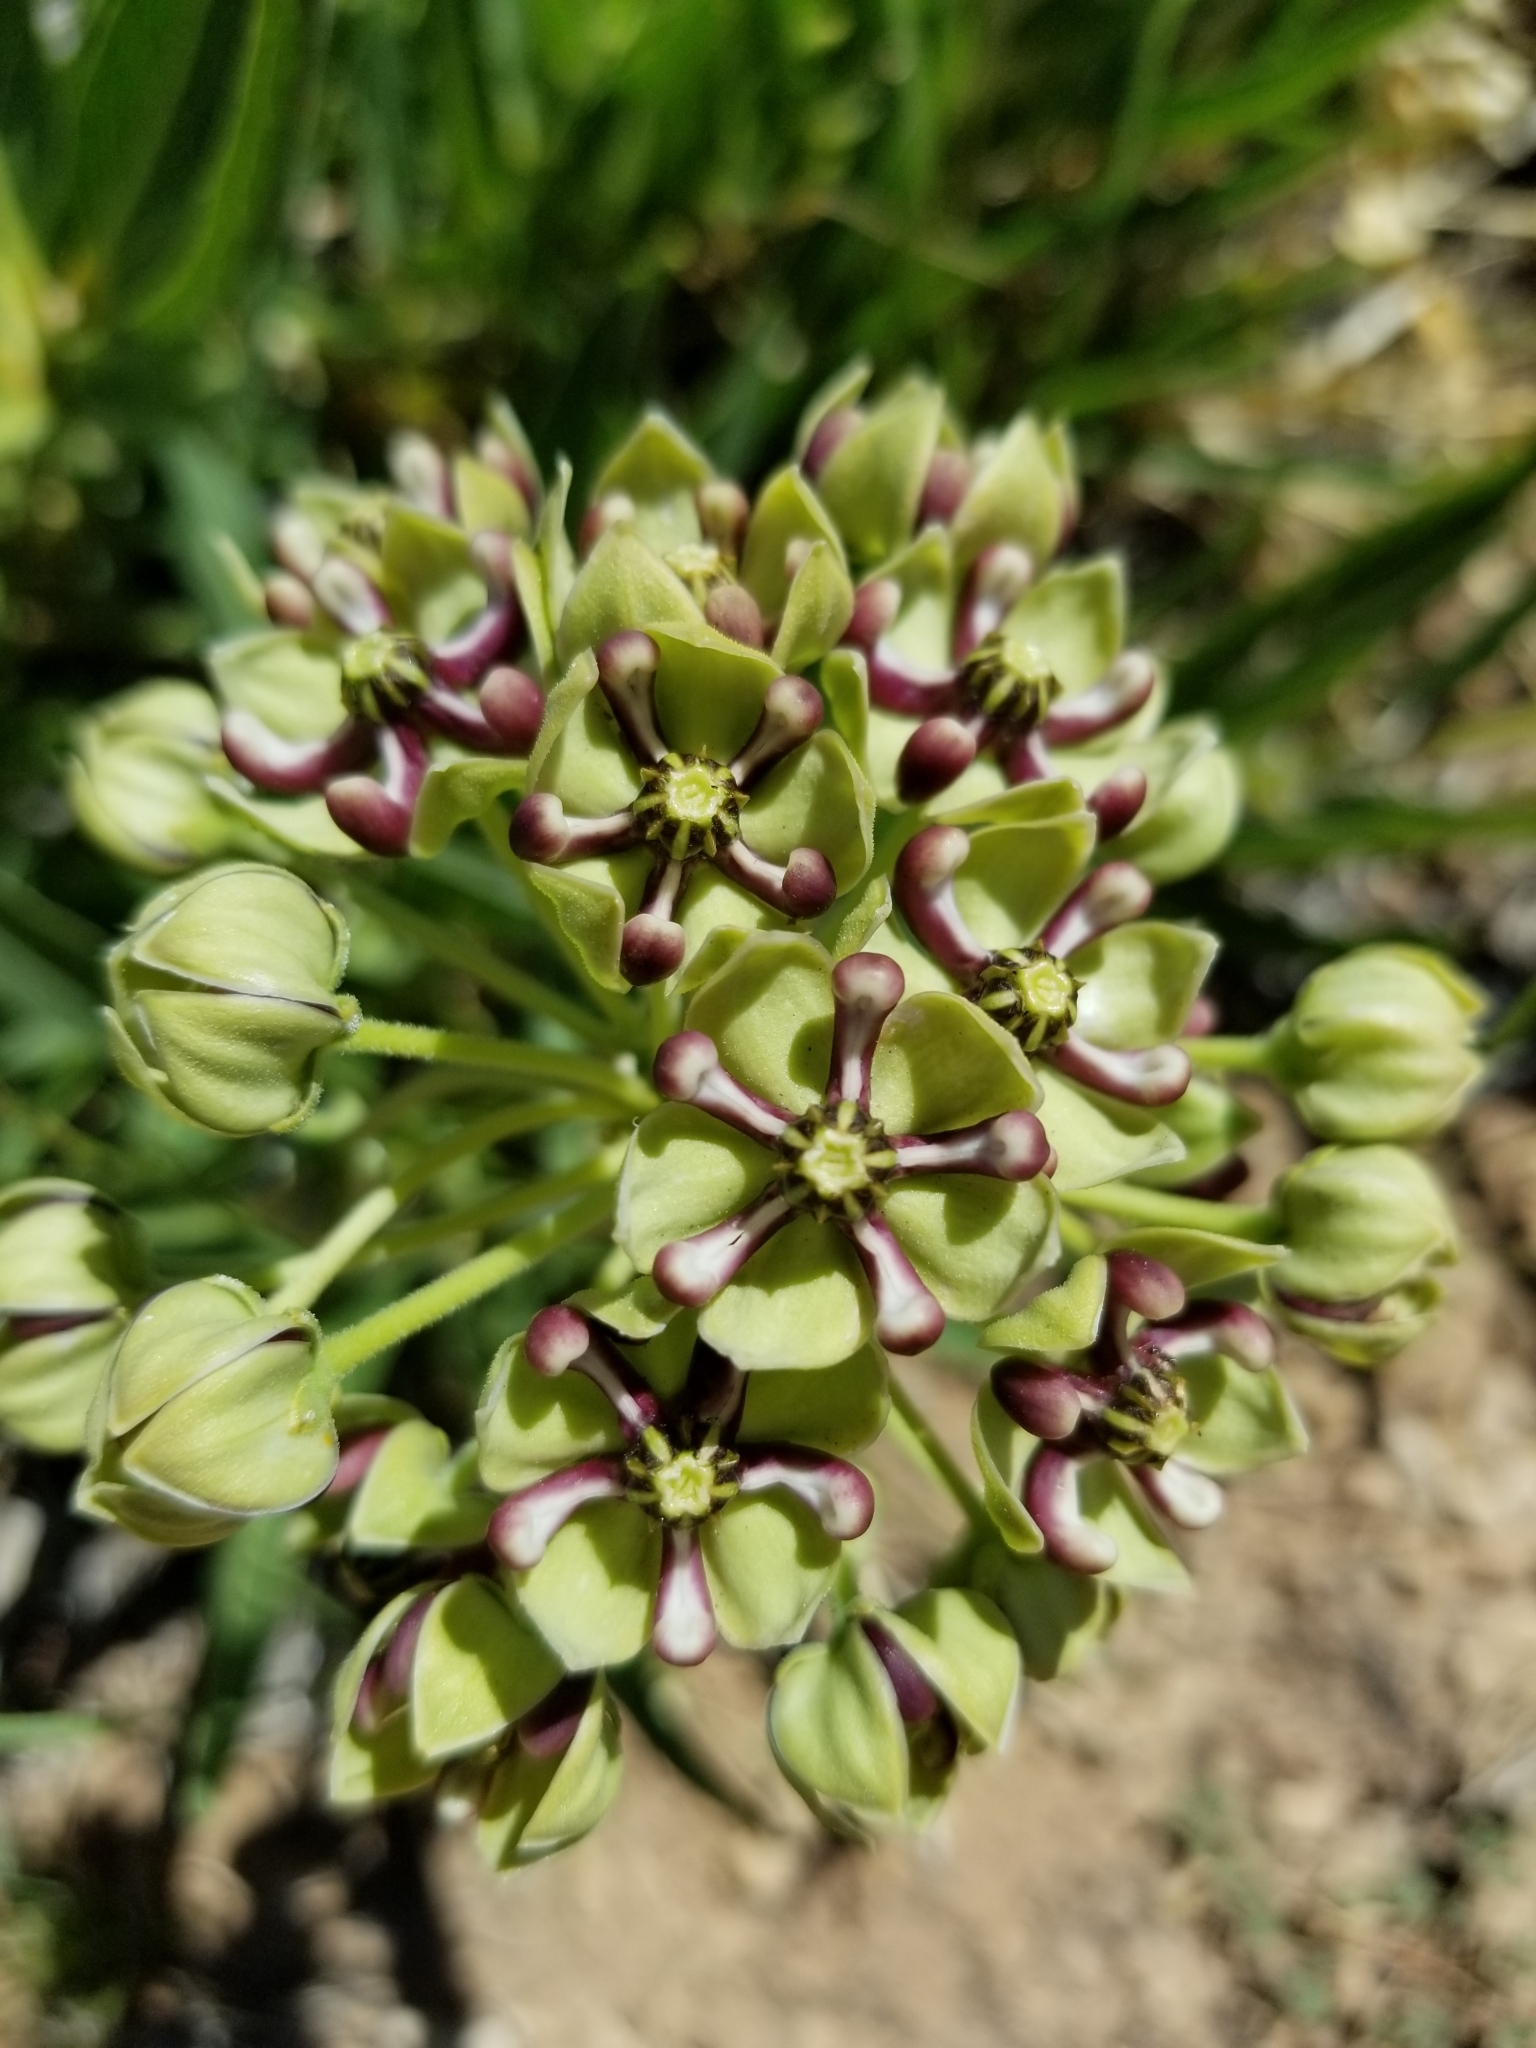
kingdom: Plantae
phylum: Tracheophyta
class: Magnoliopsida
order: Gentianales
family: Apocynaceae
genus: Asclepias
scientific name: Asclepias asperula
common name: Antelope horns
